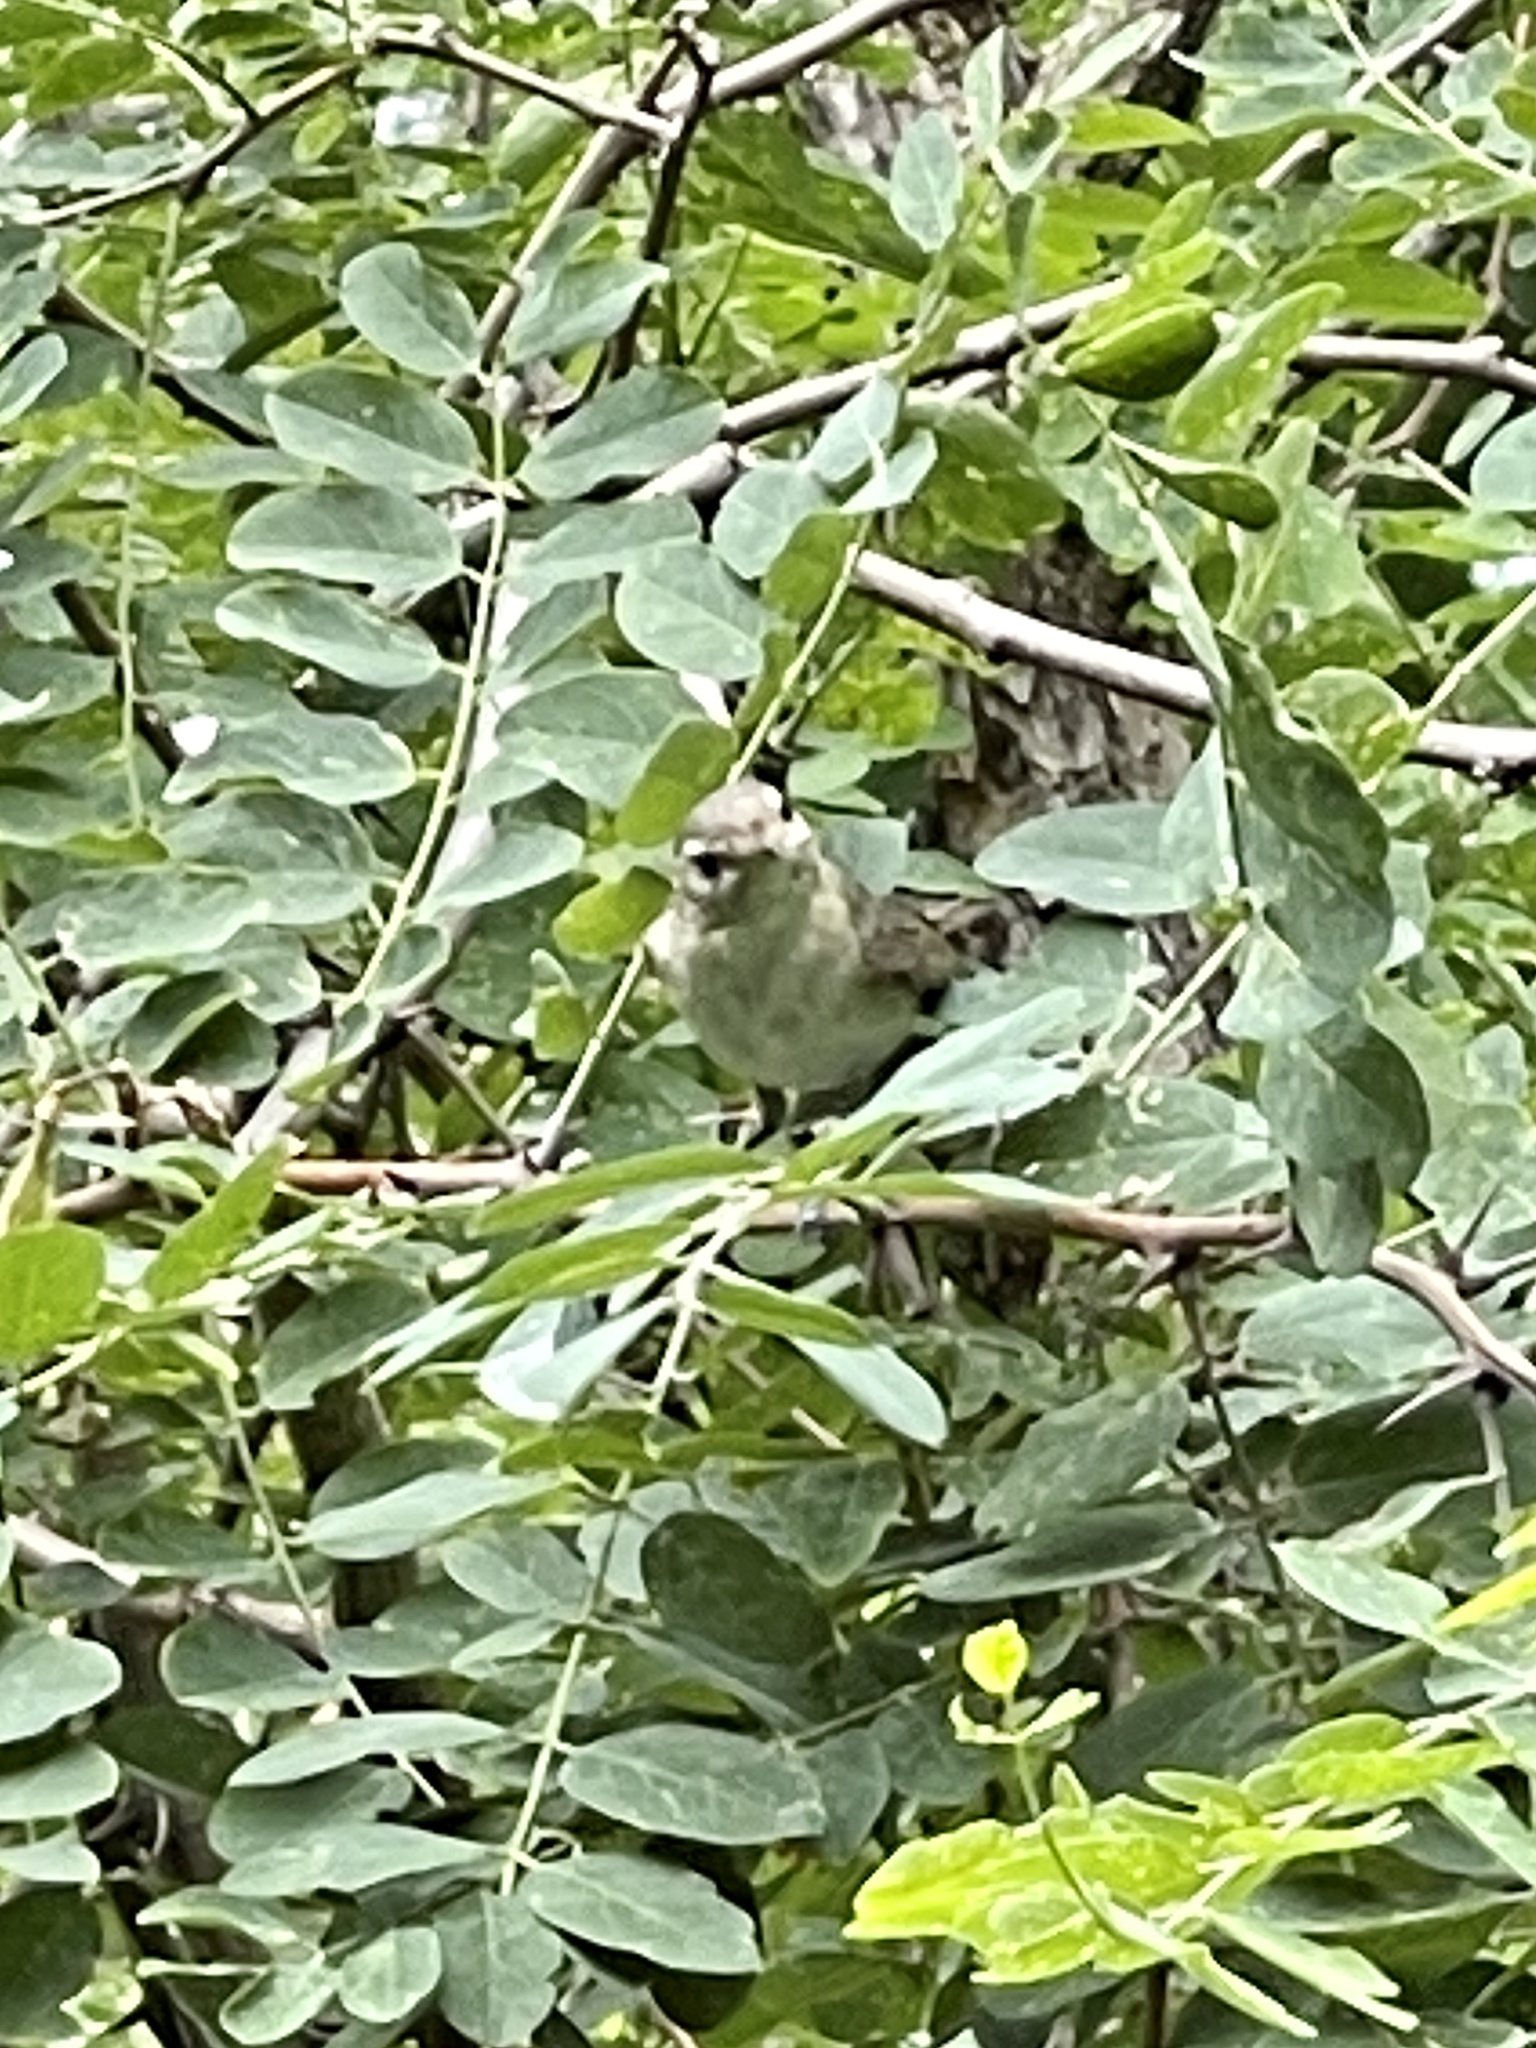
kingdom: Animalia
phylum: Chordata
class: Aves
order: Passeriformes
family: Vireonidae
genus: Vireo
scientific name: Vireo gilvus
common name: Warbling vireo
